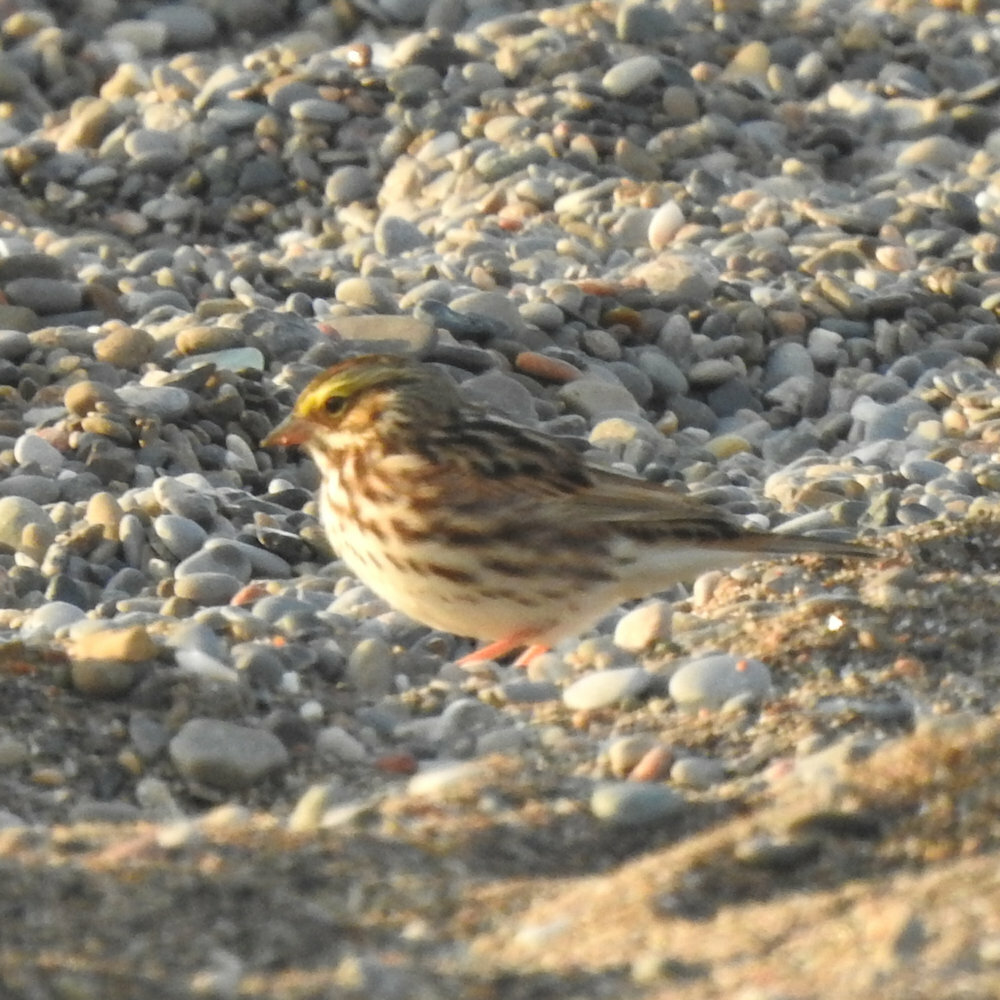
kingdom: Animalia
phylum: Chordata
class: Aves
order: Passeriformes
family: Passerellidae
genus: Passerculus
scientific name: Passerculus sandwichensis
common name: Savannah sparrow
